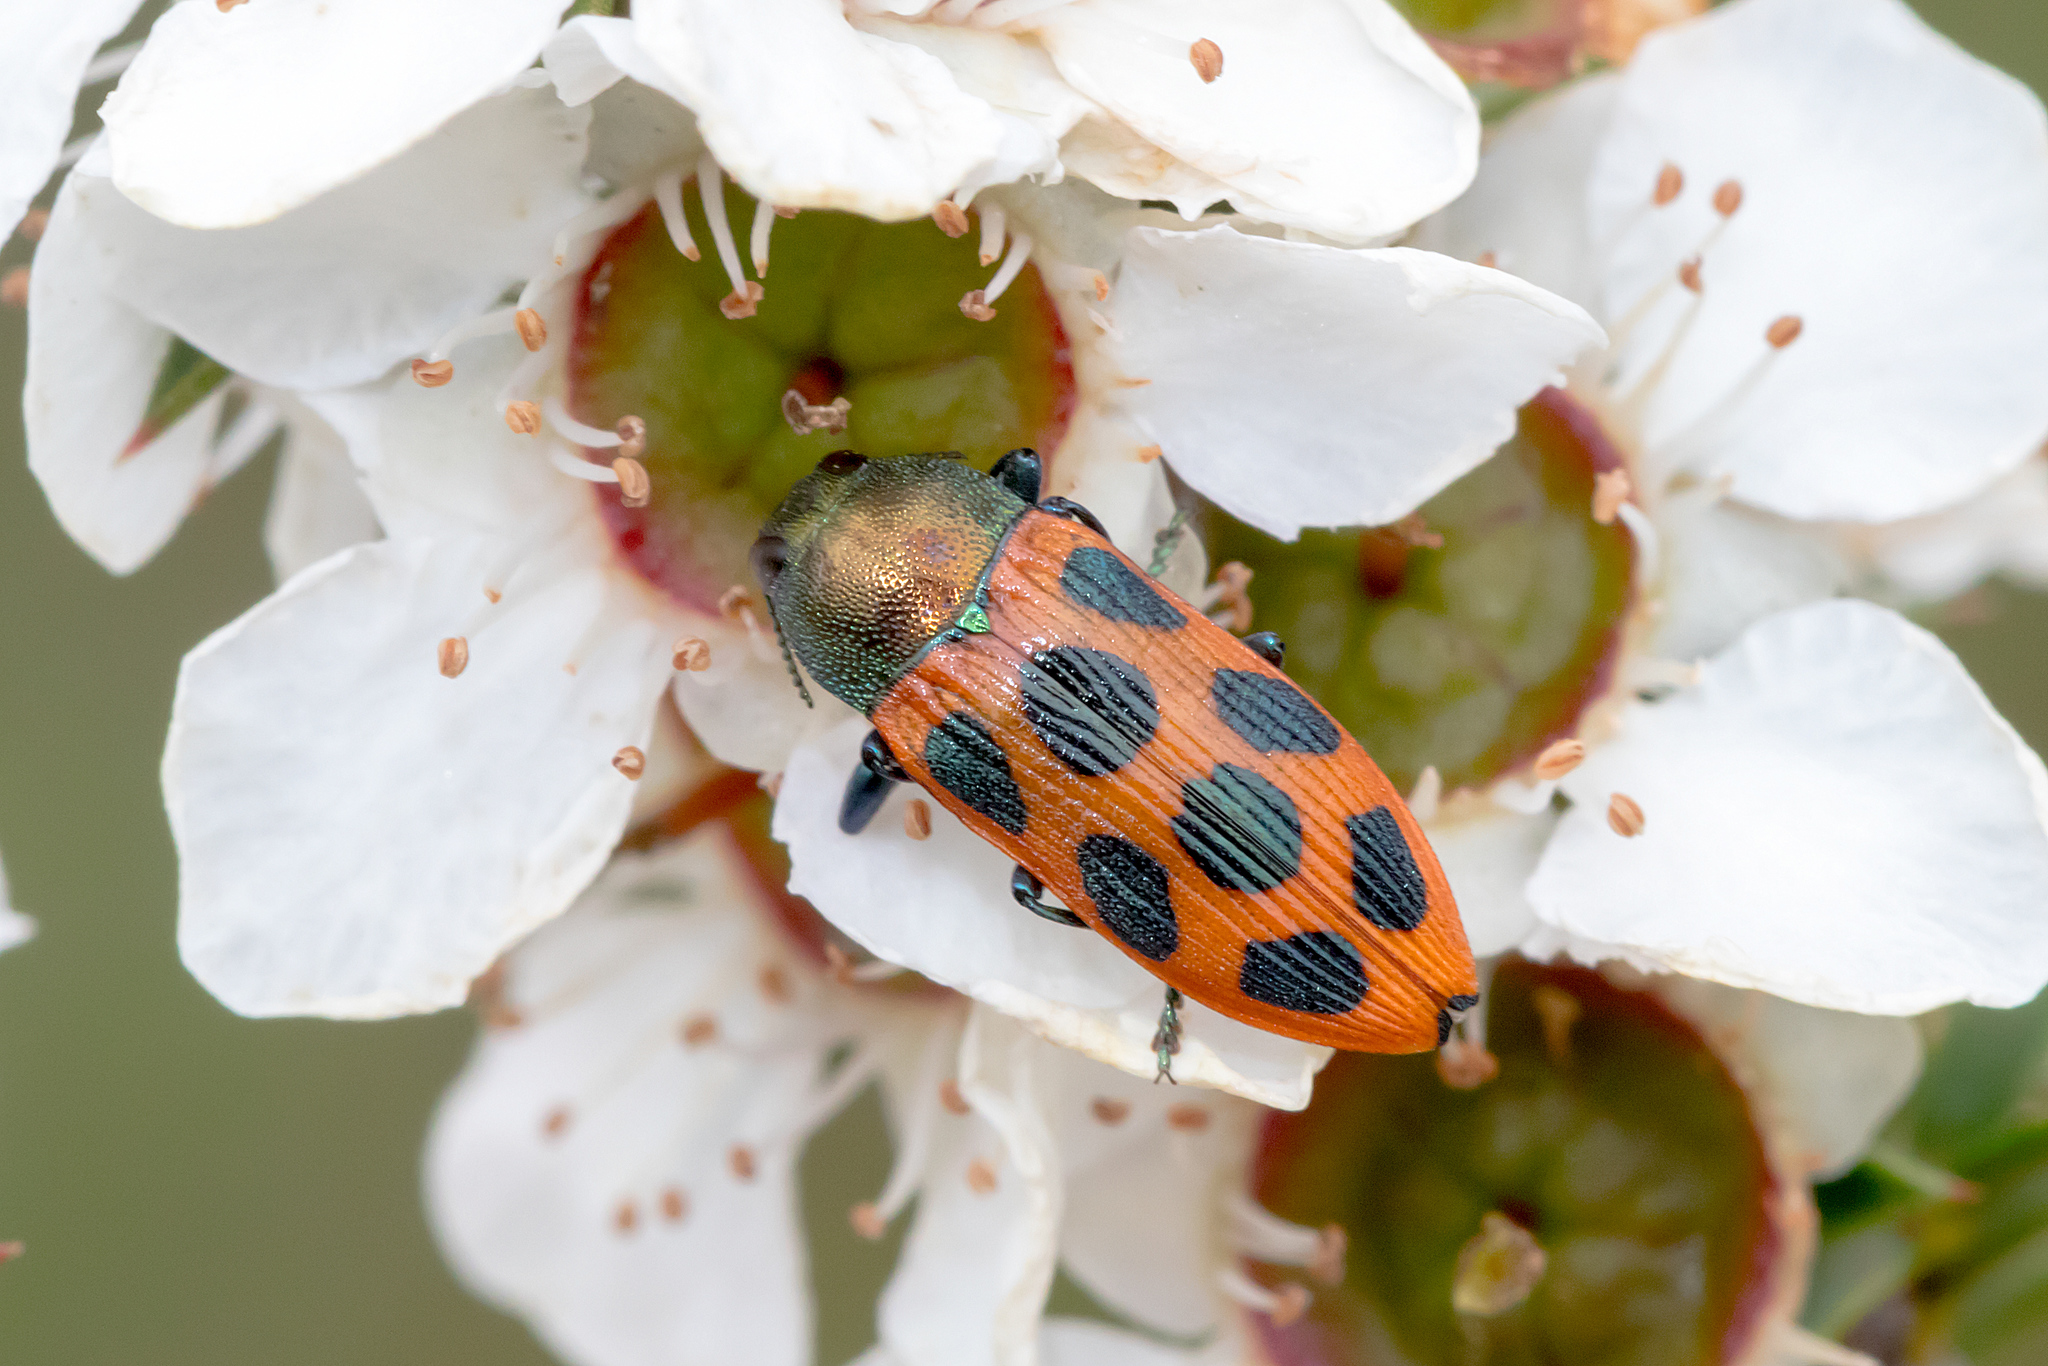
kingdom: Animalia
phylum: Arthropoda
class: Insecta
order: Coleoptera
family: Buprestidae
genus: Castiarina
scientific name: Castiarina octomaculata
